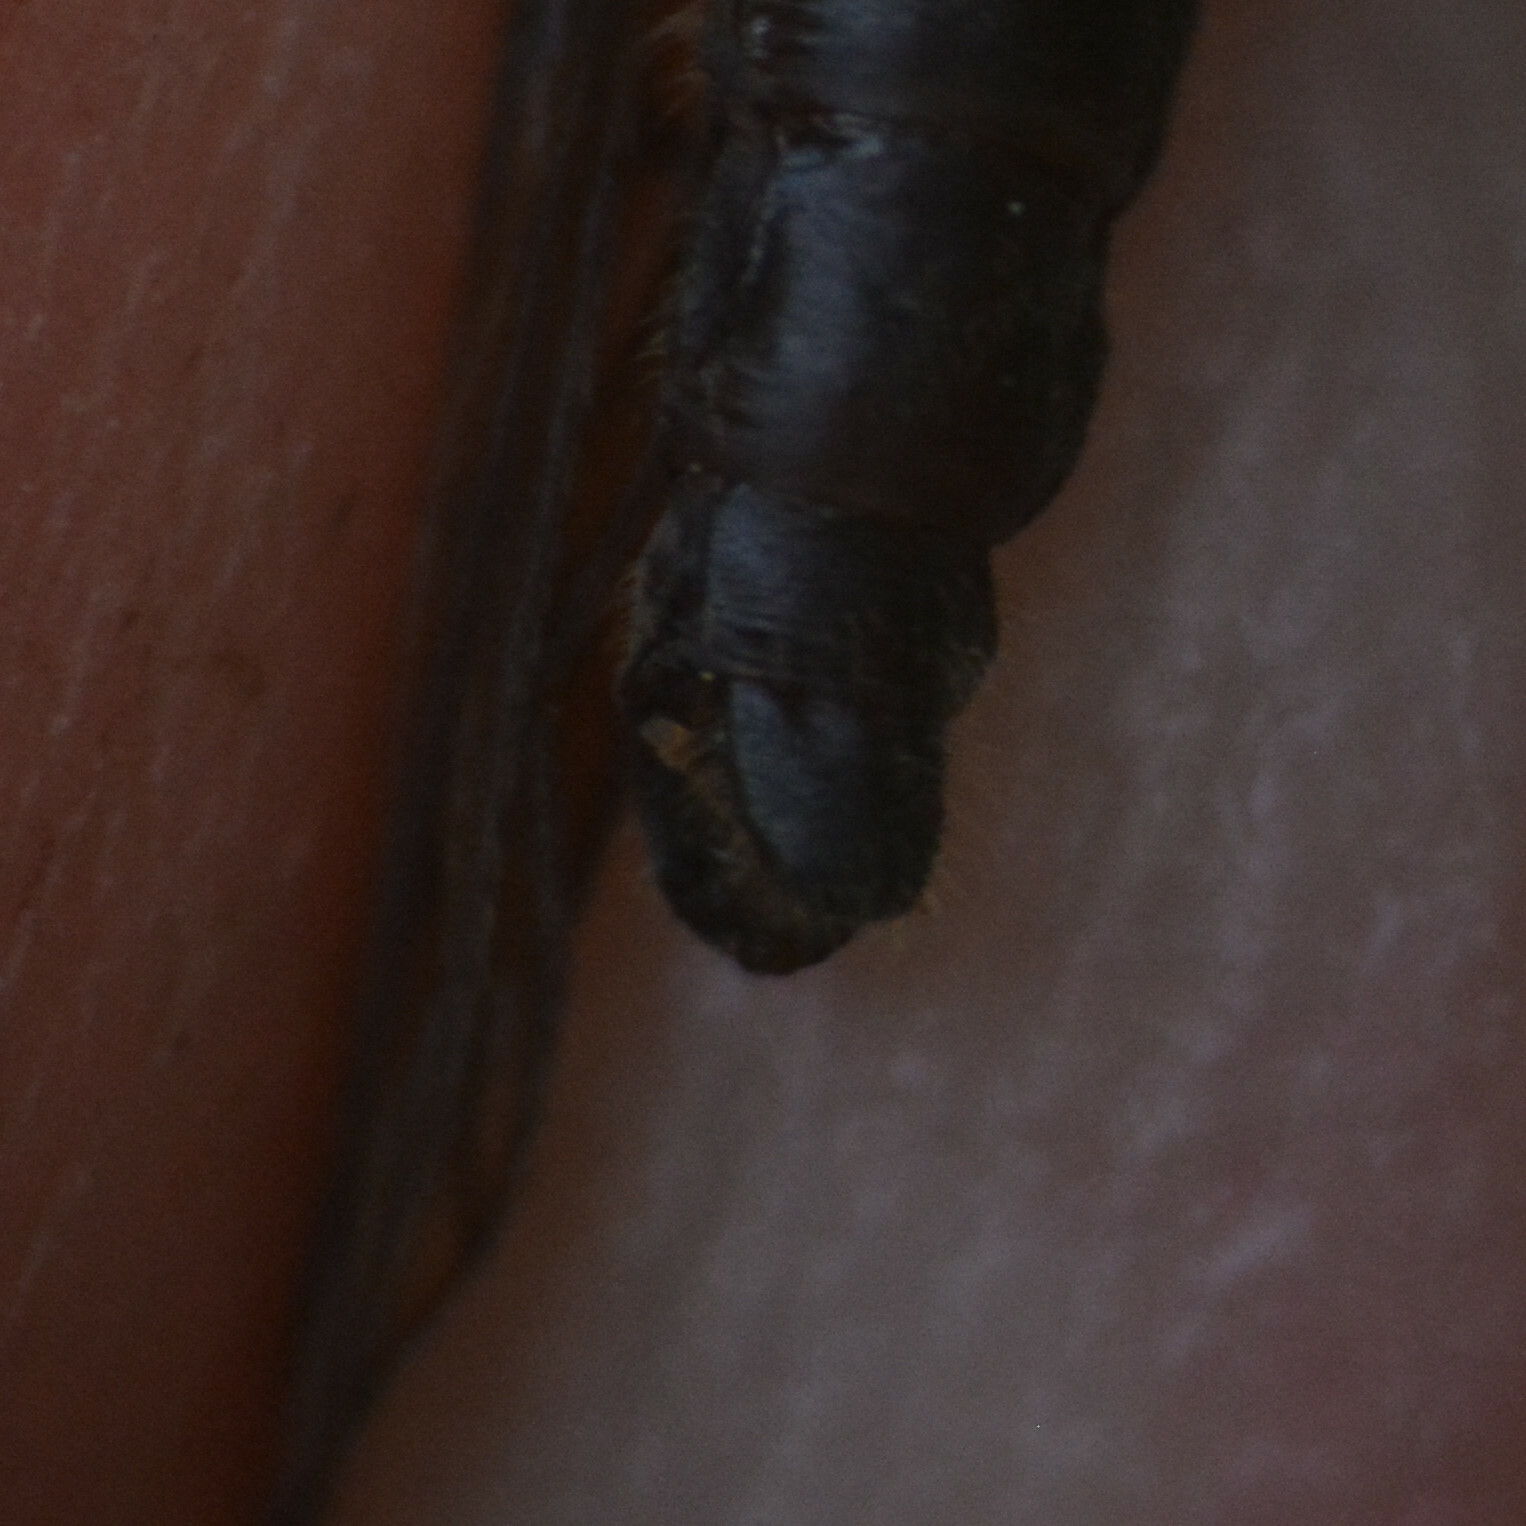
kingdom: Animalia
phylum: Arthropoda
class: Insecta
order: Megaloptera
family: Sialidae
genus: Sialis
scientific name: Sialis lutaria
